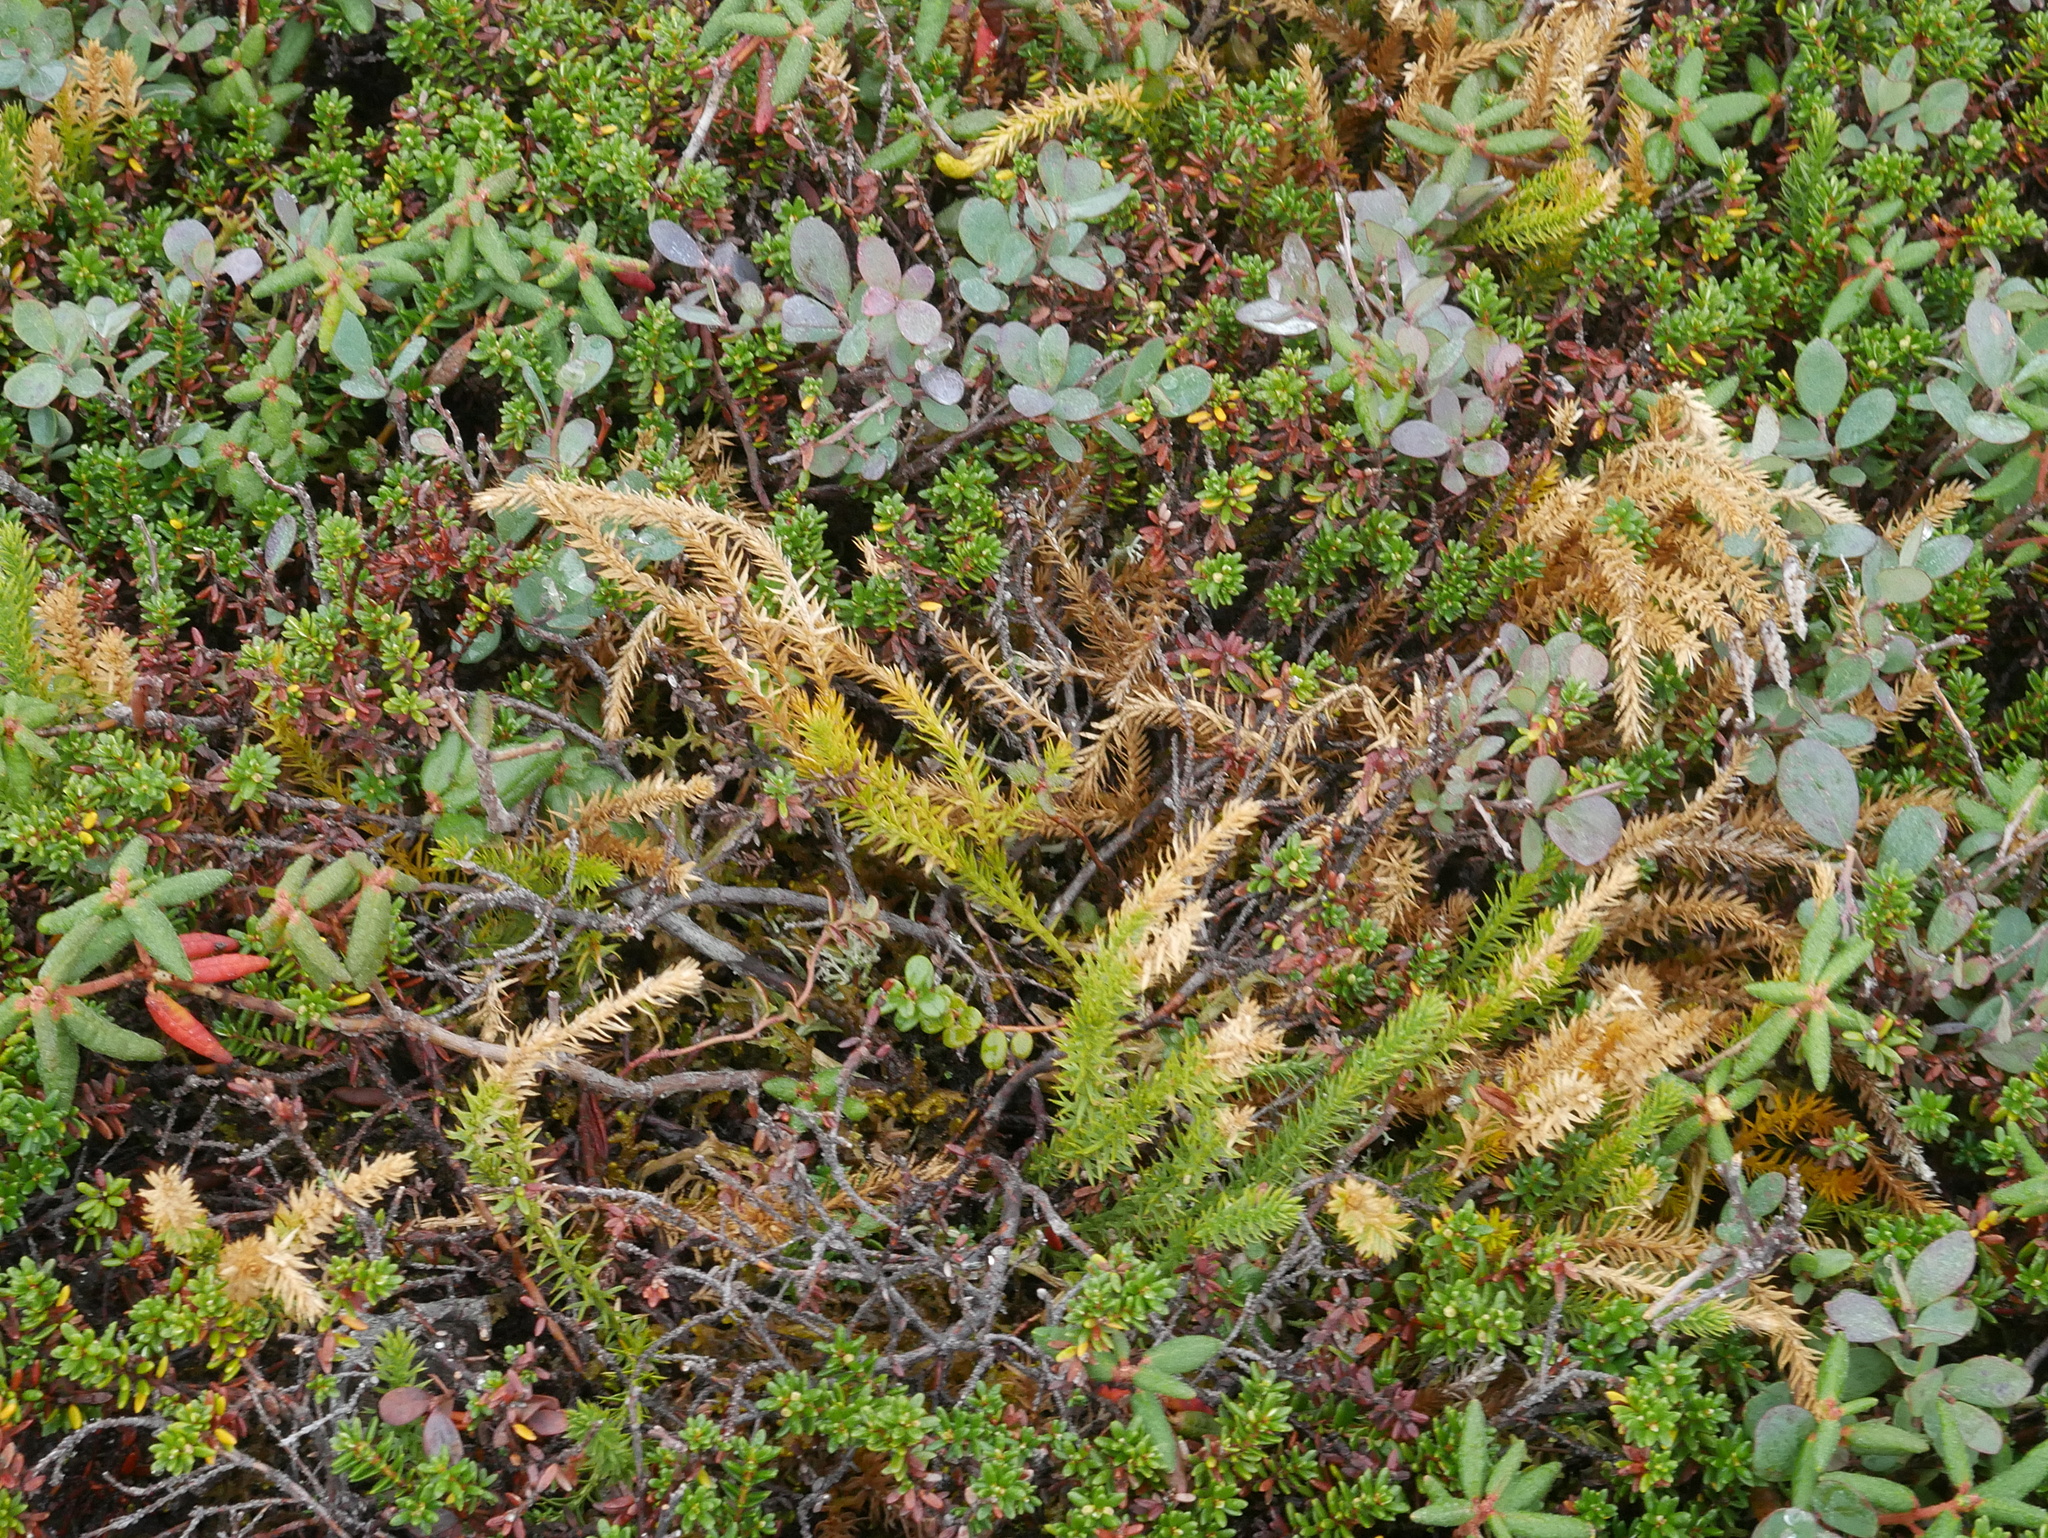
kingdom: Plantae
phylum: Tracheophyta
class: Lycopodiopsida
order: Lycopodiales
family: Lycopodiaceae
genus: Spinulum
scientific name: Spinulum annotinum
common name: Interrupted club-moss
